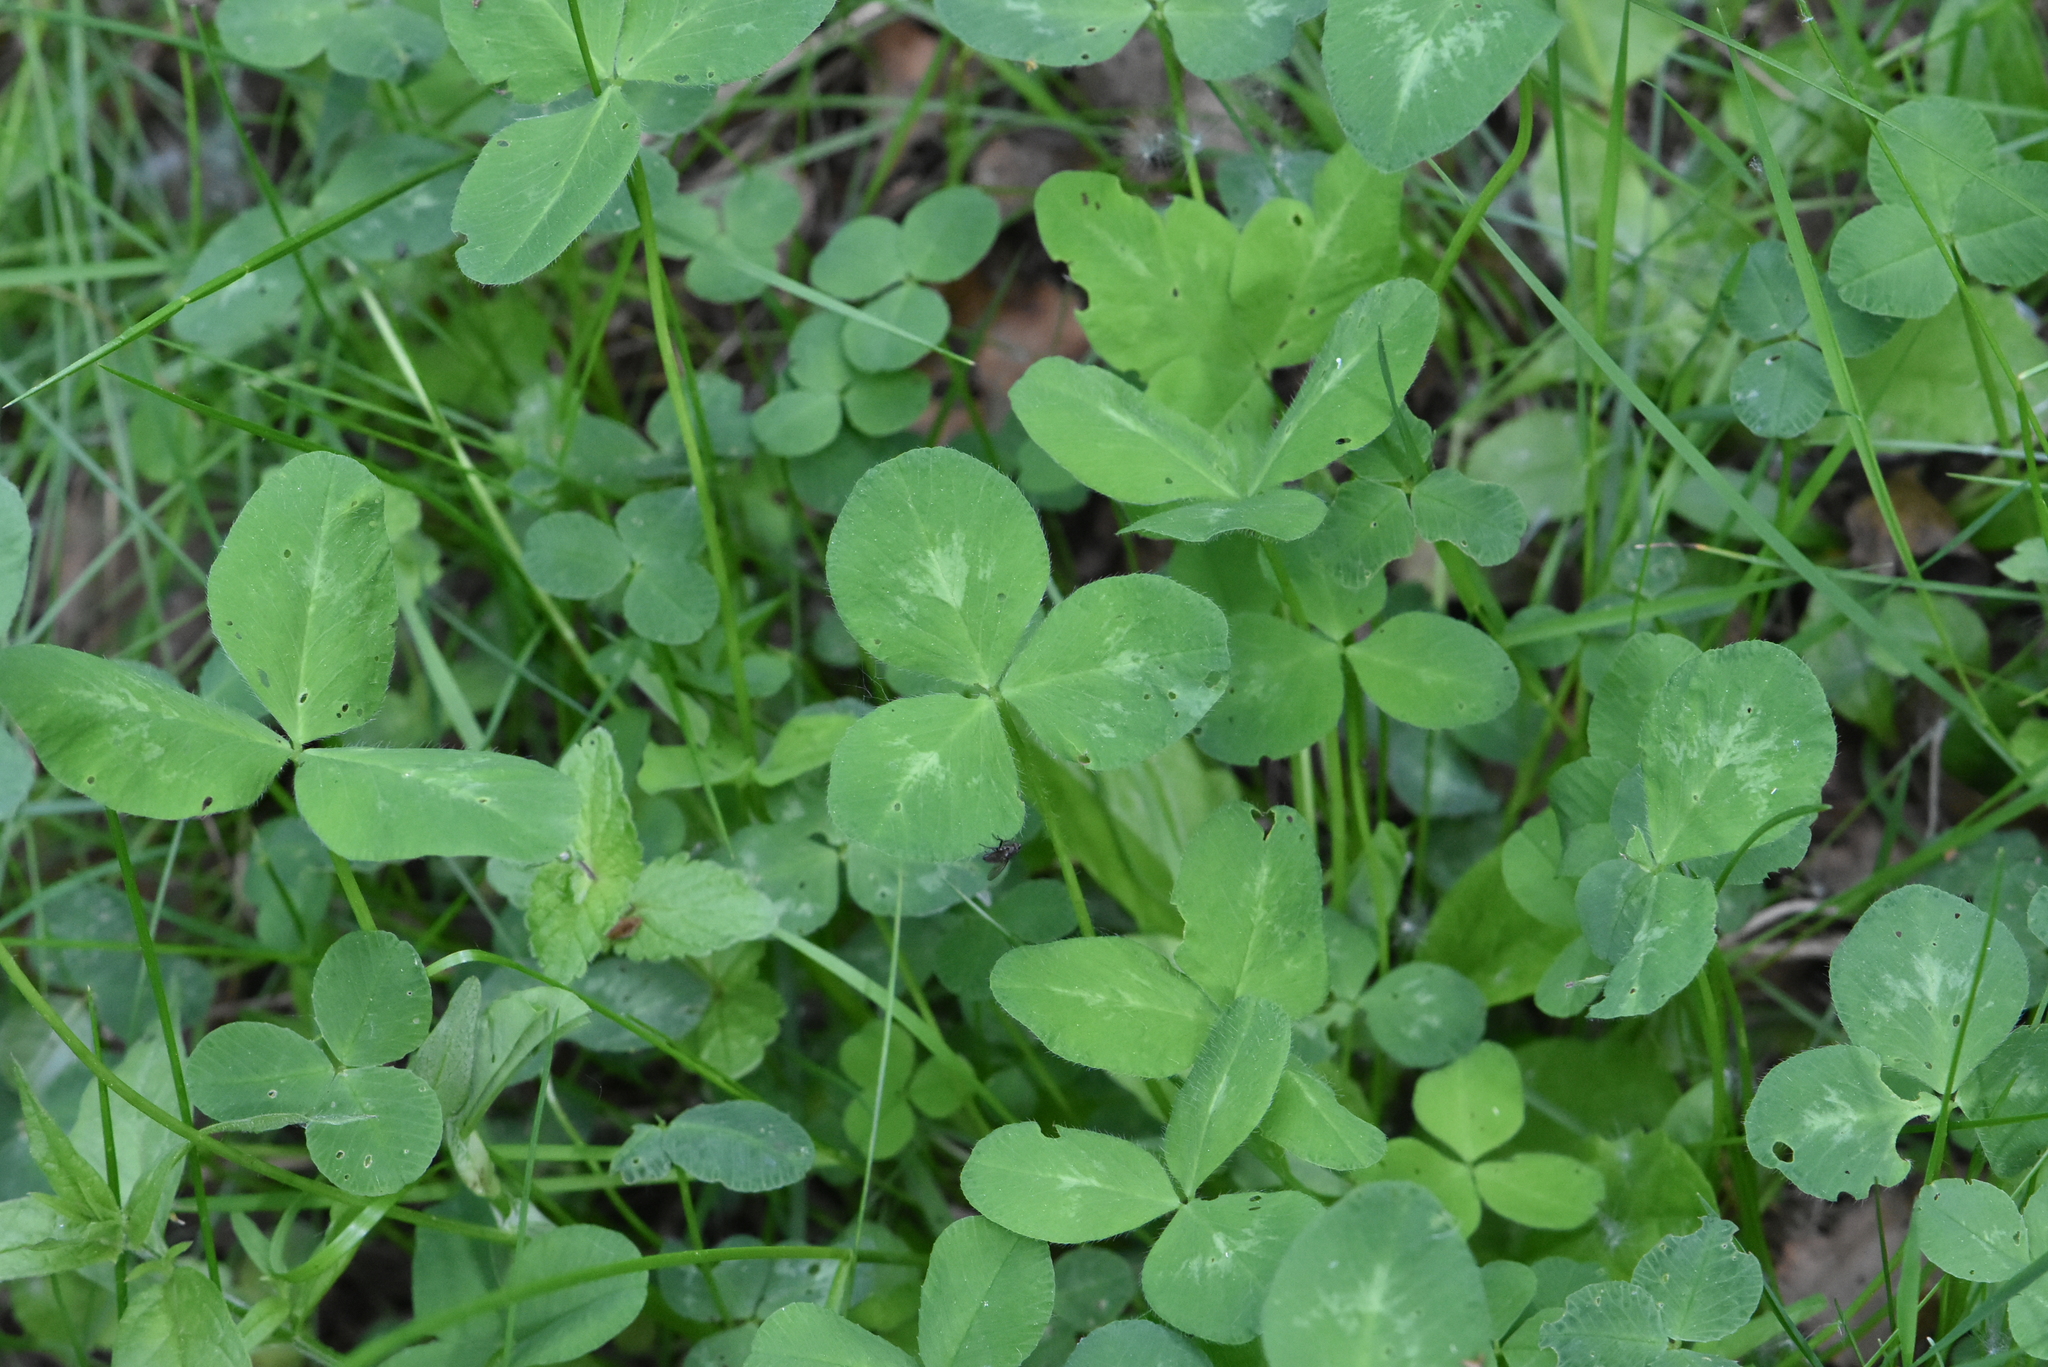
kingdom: Plantae
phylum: Tracheophyta
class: Magnoliopsida
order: Fabales
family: Fabaceae
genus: Trifolium
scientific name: Trifolium pratense
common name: Red clover
